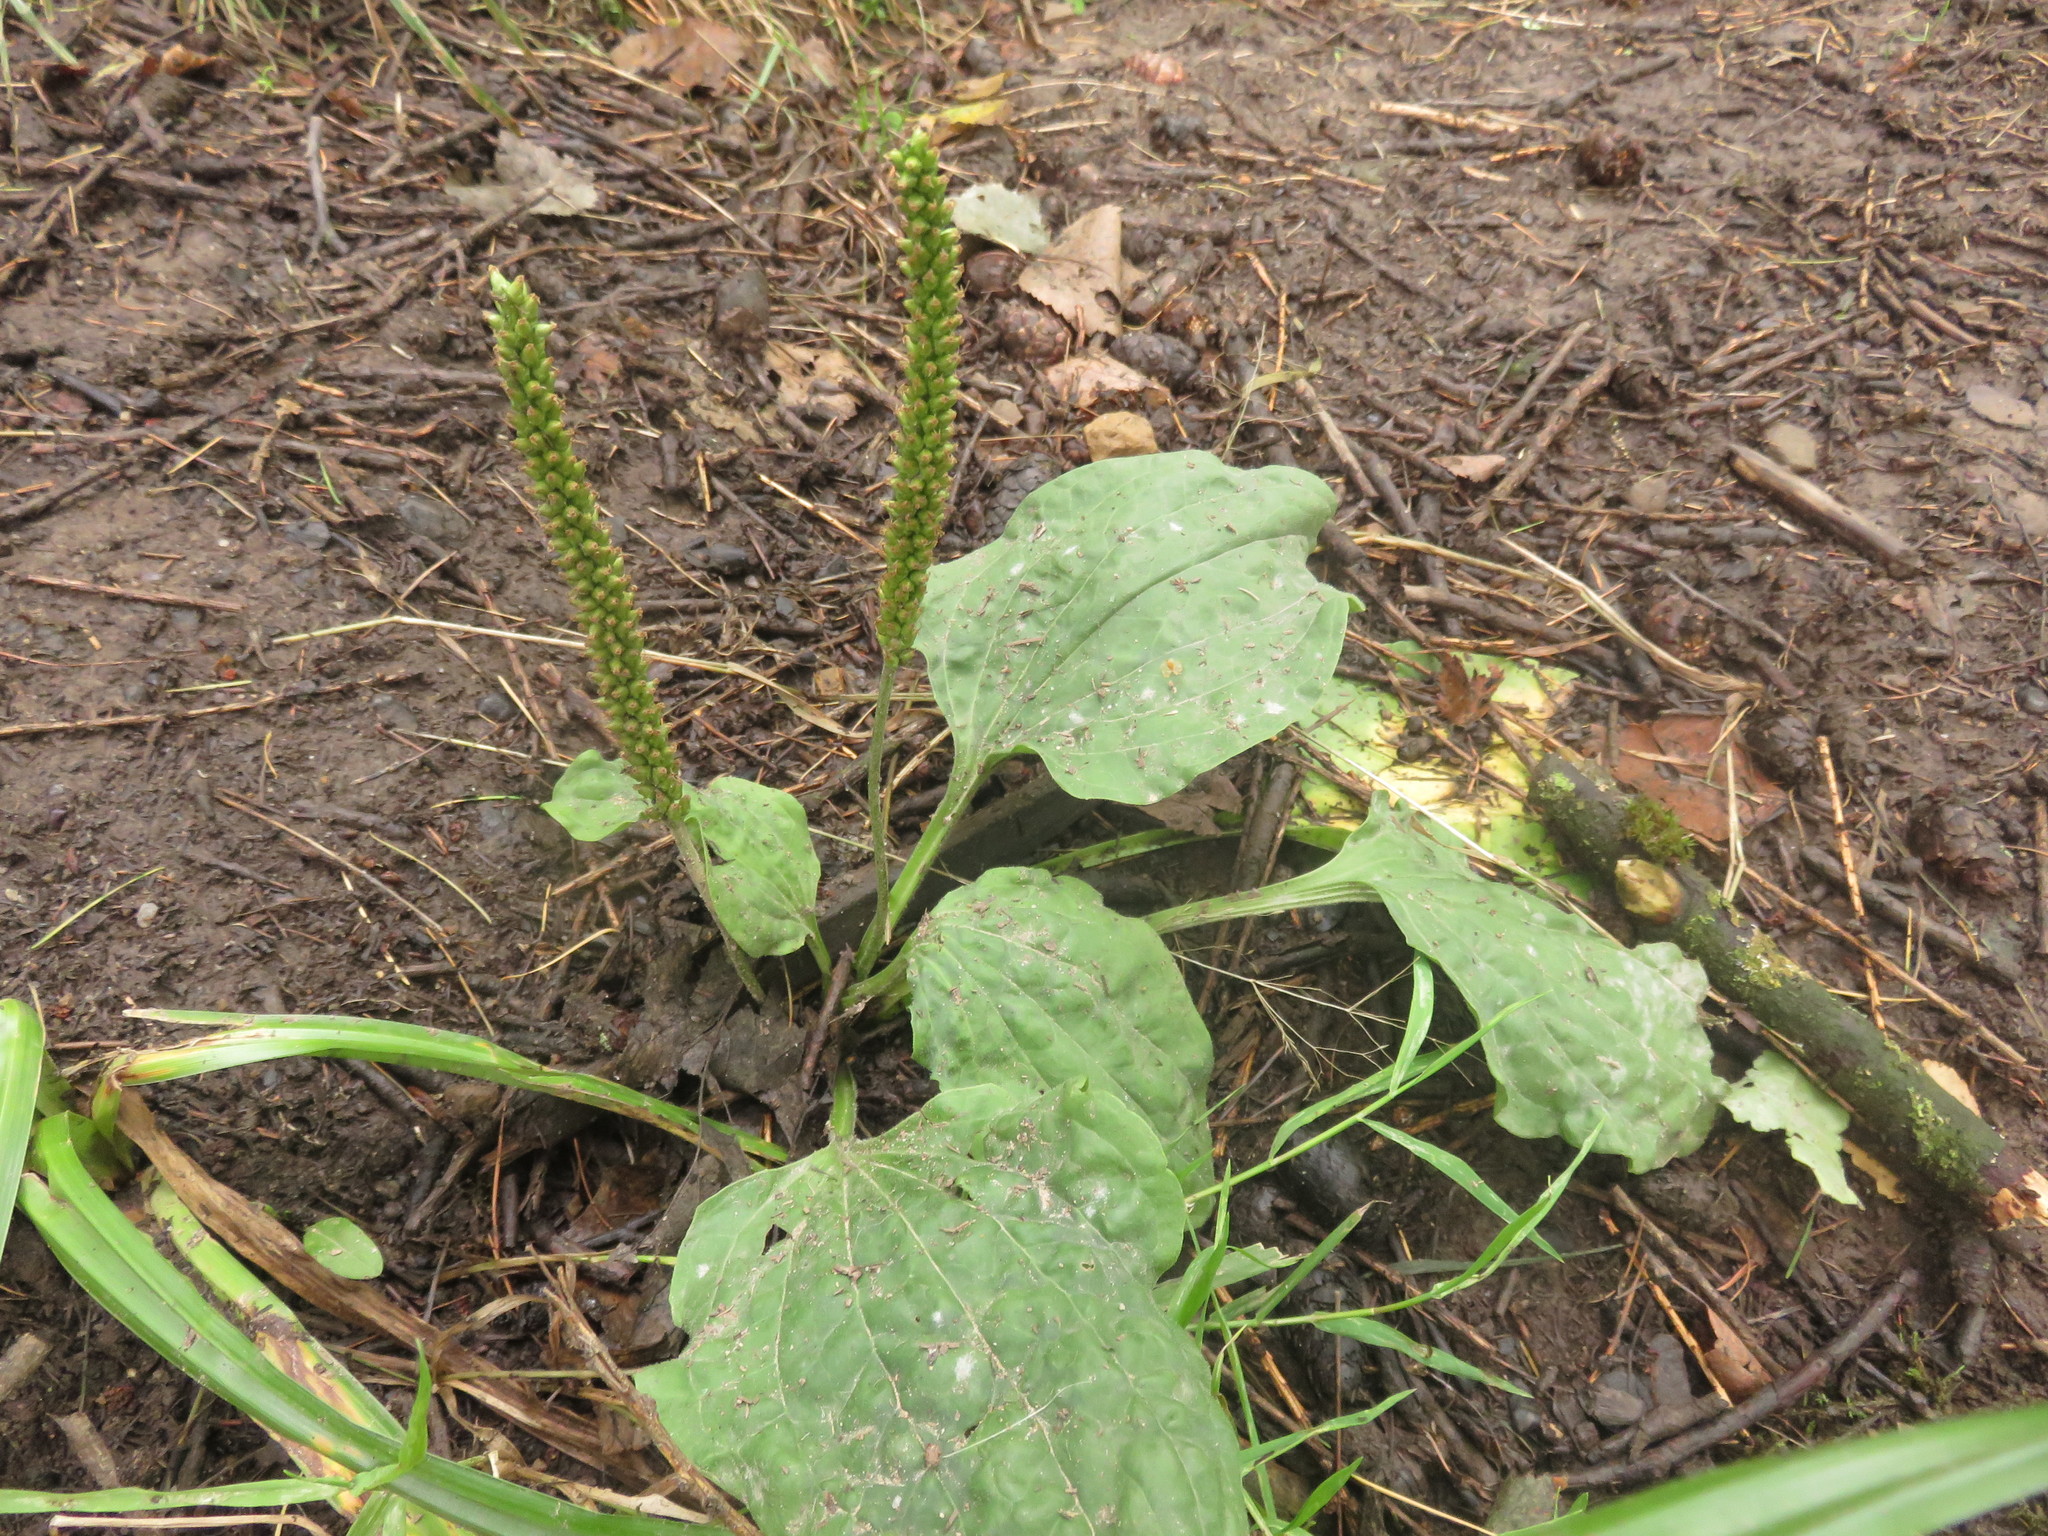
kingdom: Plantae
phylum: Tracheophyta
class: Magnoliopsida
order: Lamiales
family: Plantaginaceae
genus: Plantago
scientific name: Plantago major
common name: Common plantain
